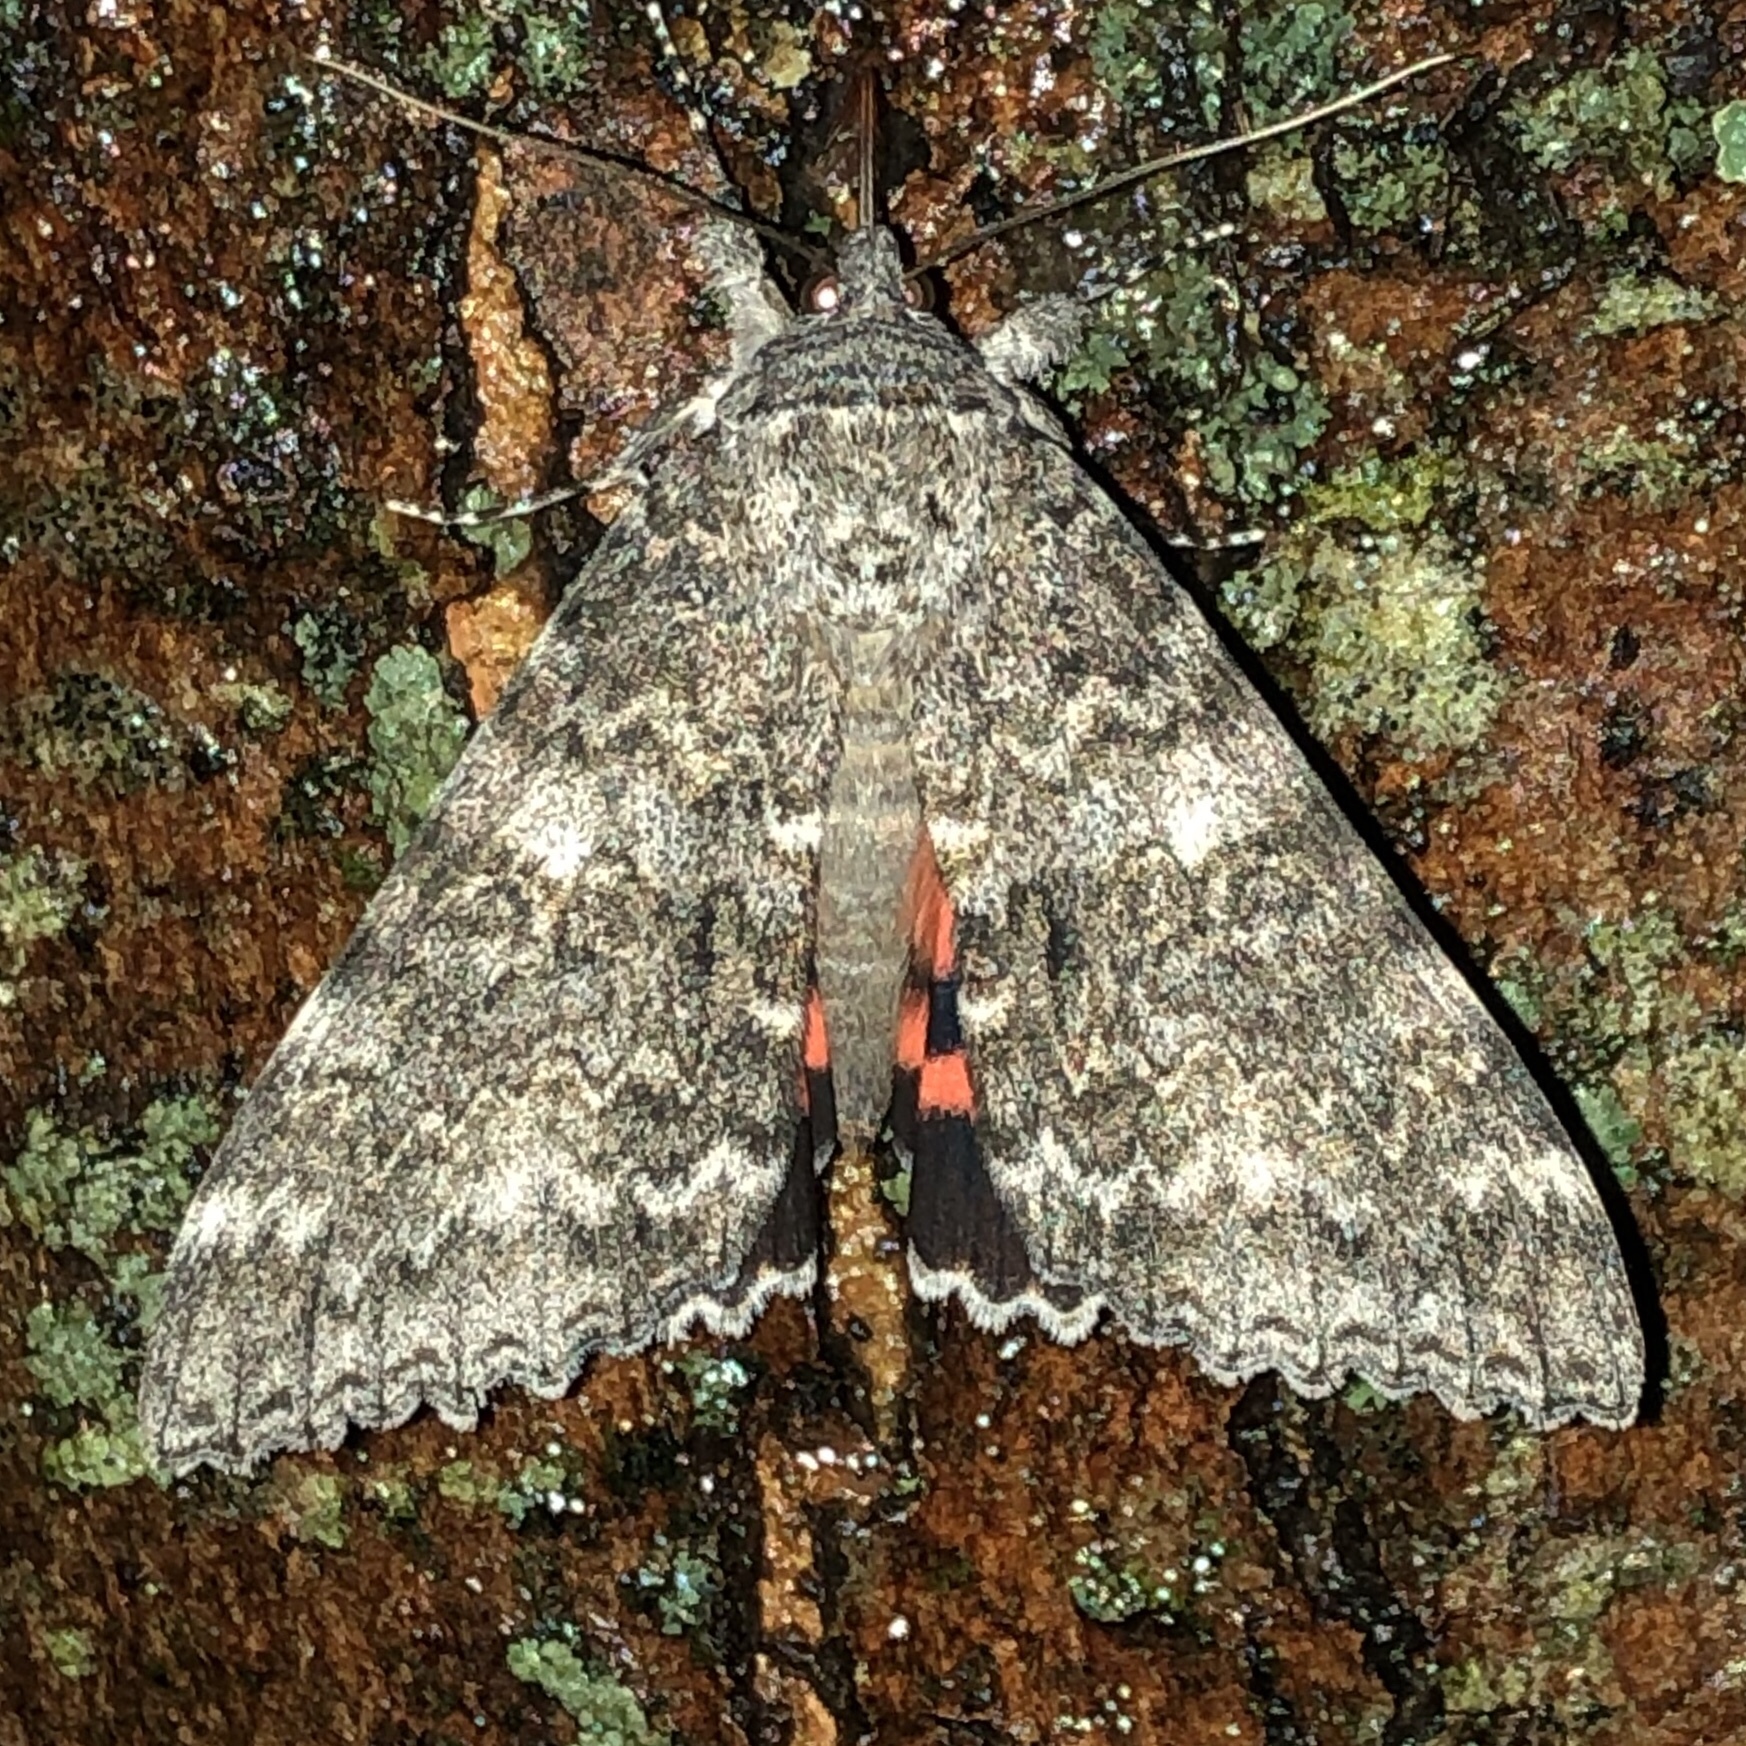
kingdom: Animalia
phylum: Arthropoda
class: Insecta
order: Lepidoptera
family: Erebidae
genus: Catocala
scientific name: Catocala unijuga
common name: Once-married underwing
